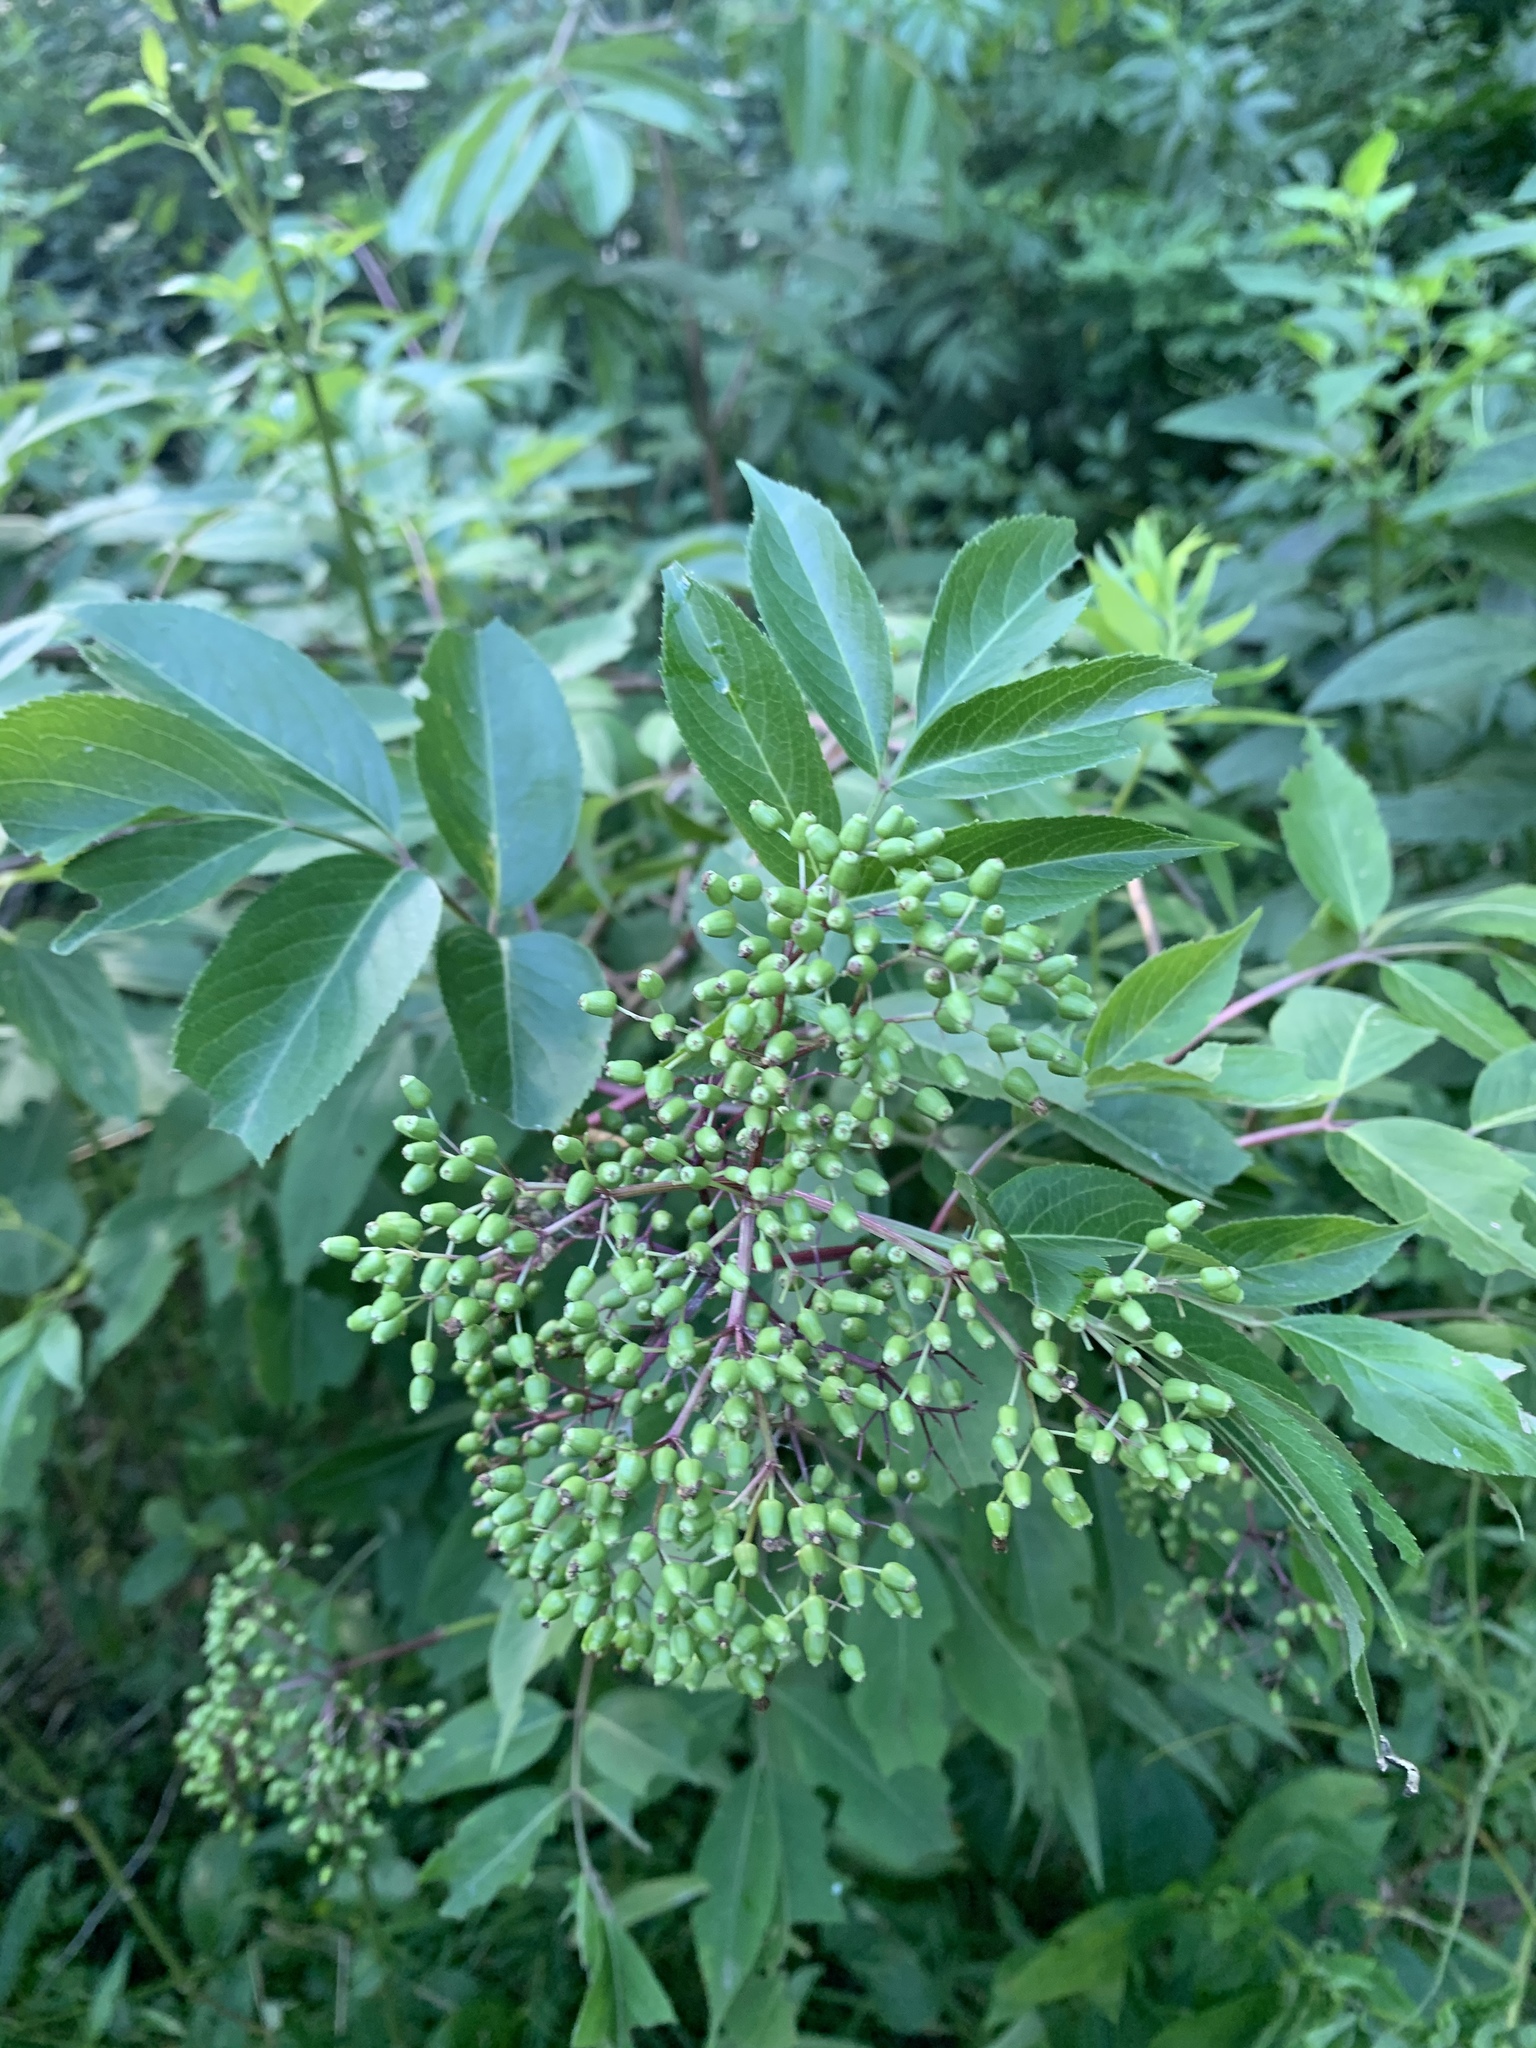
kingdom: Plantae
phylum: Tracheophyta
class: Magnoliopsida
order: Dipsacales
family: Viburnaceae
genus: Sambucus
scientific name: Sambucus canadensis
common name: American elder
